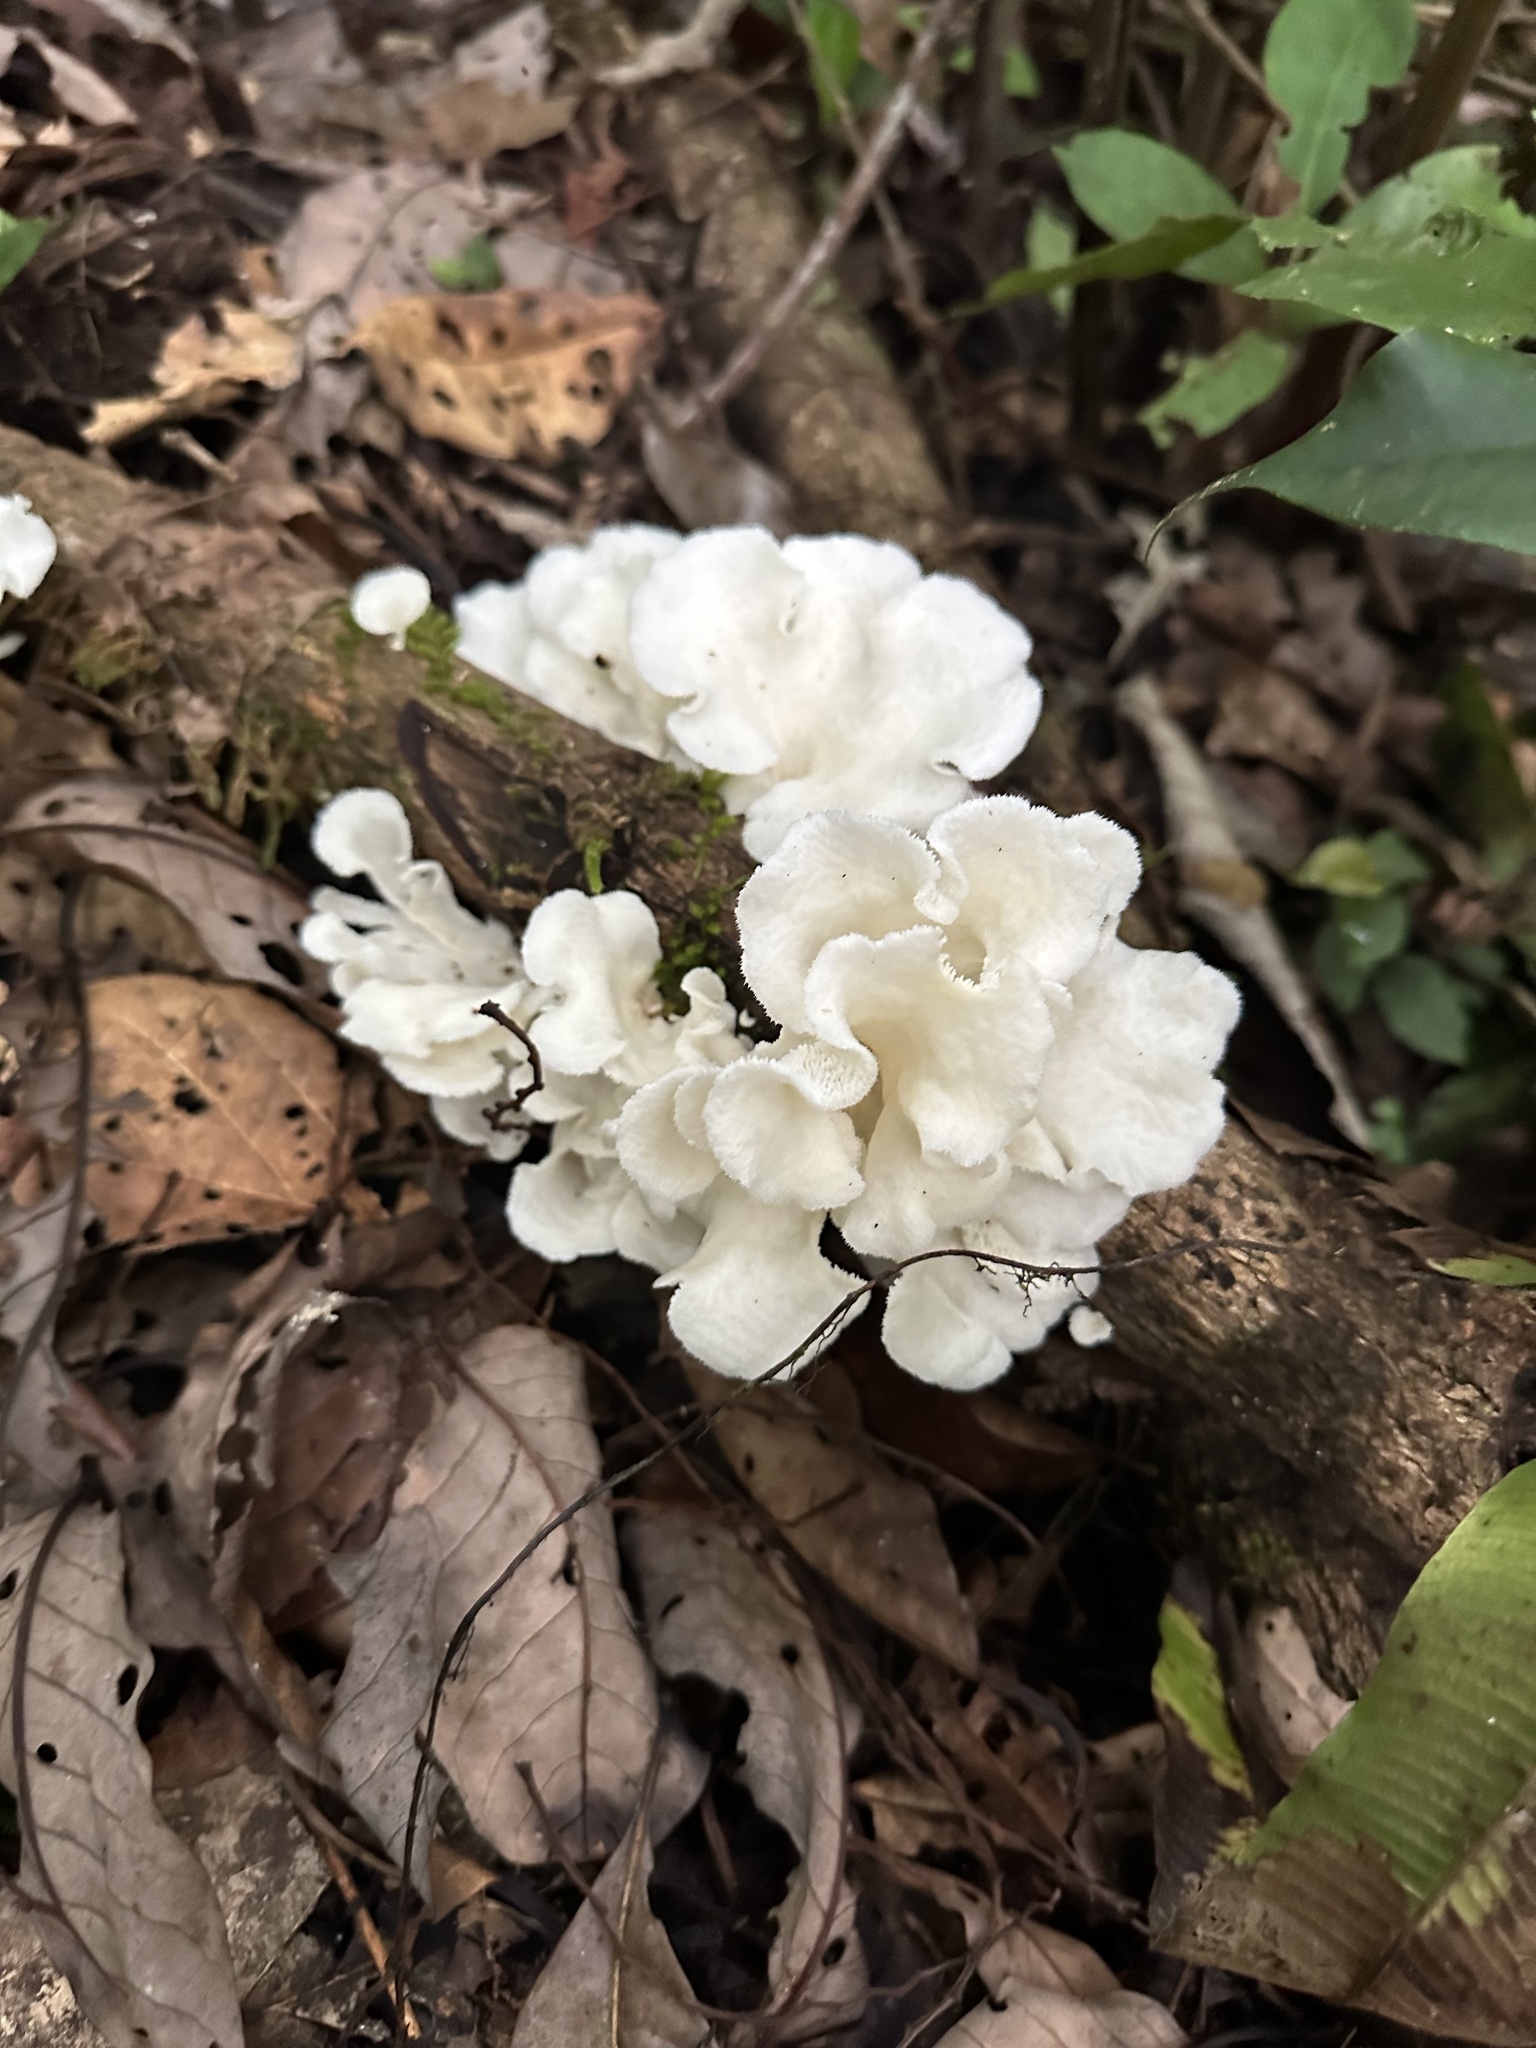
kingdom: Fungi
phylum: Basidiomycota
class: Agaricomycetes
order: Polyporales
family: Polyporaceae
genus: Favolus
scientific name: Favolus tenuiculus
